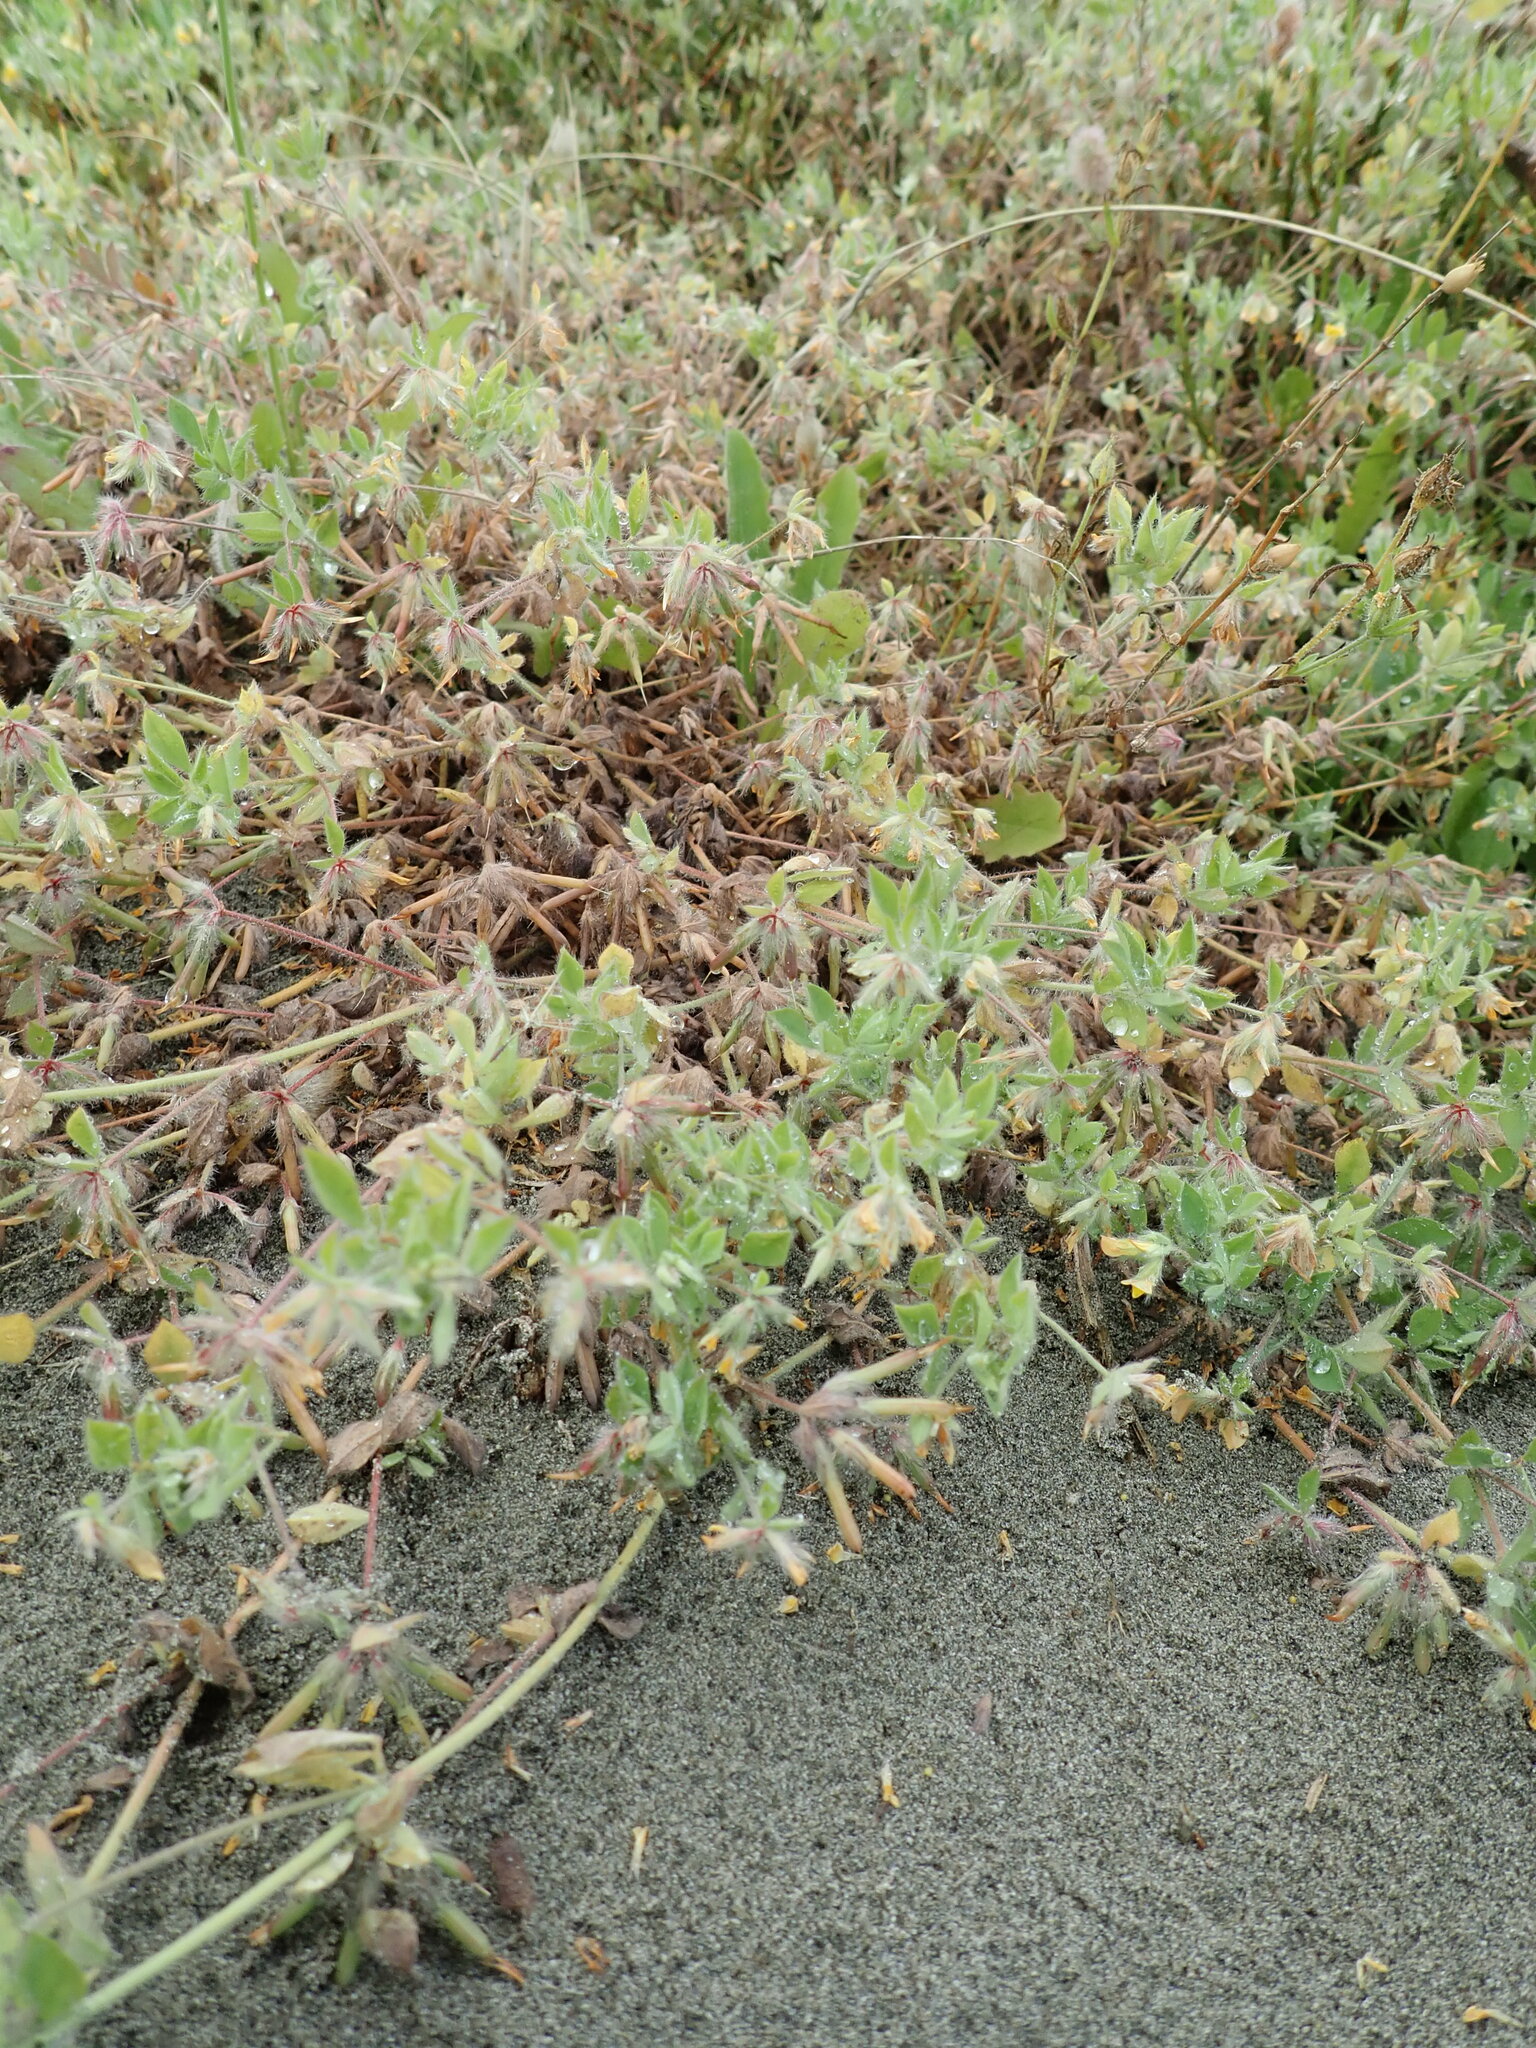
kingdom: Plantae
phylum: Tracheophyta
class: Magnoliopsida
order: Fabales
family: Fabaceae
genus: Lotus
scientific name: Lotus subbiflorus
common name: Hairy bird's-foot trefoil
